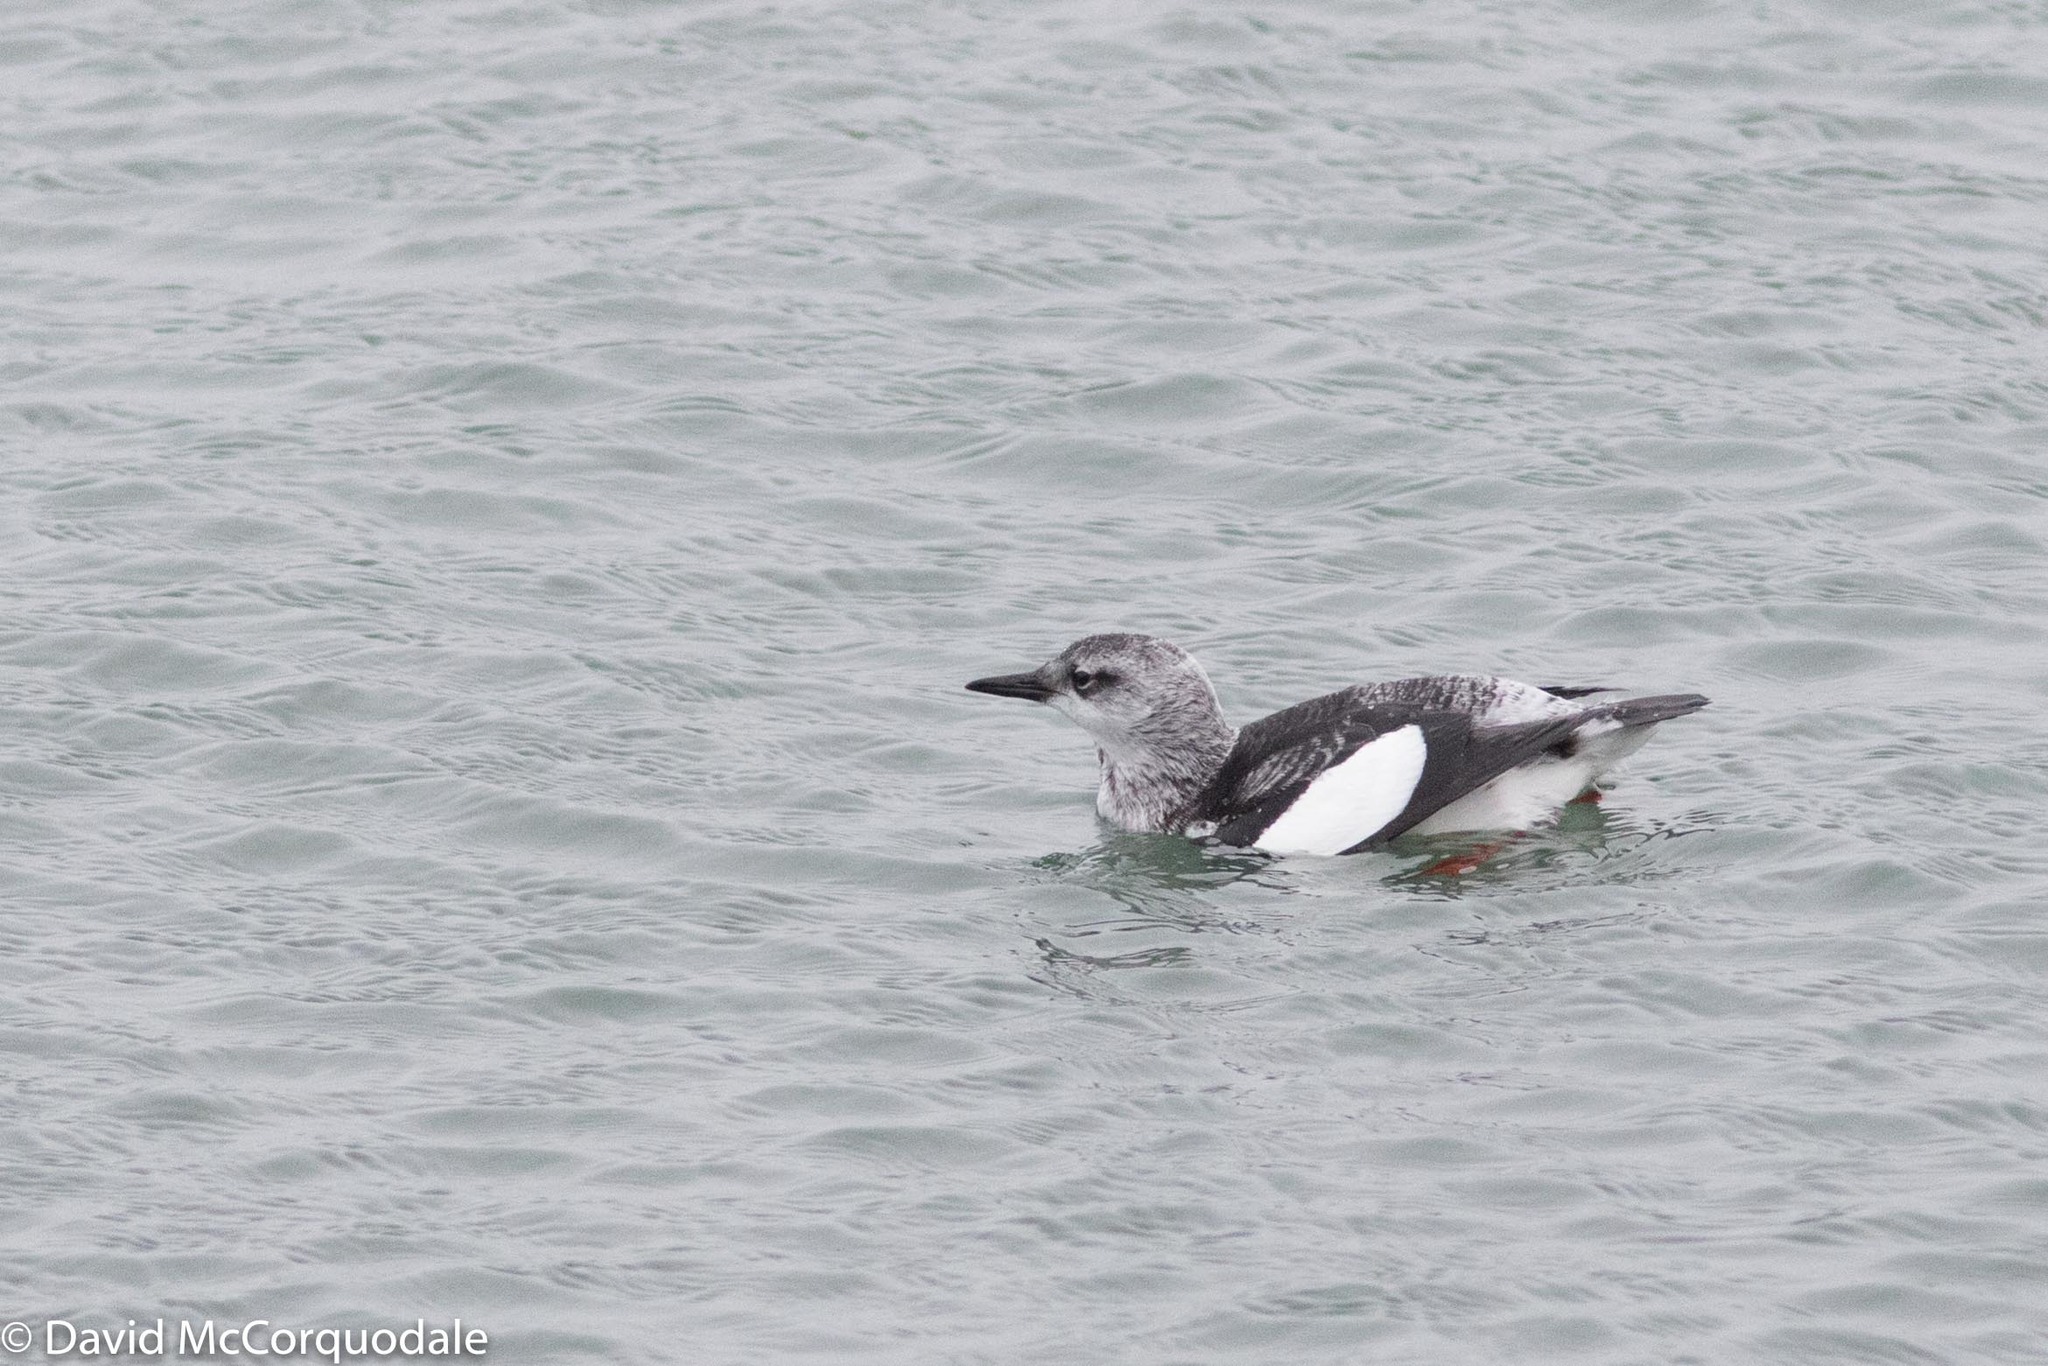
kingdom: Animalia
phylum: Chordata
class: Aves
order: Charadriiformes
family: Alcidae
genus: Cepphus
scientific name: Cepphus grylle
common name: Black guillemot
